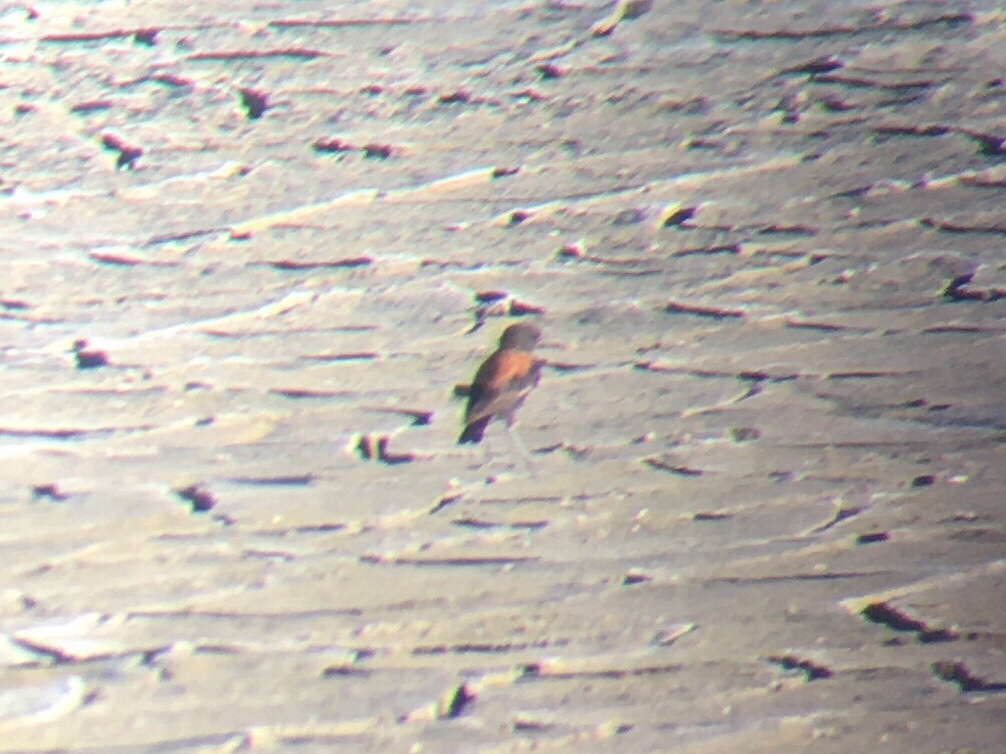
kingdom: Animalia
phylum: Chordata
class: Aves
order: Passeriformes
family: Tyrannidae
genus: Lessonia
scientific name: Lessonia rufa
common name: Austral negrito
